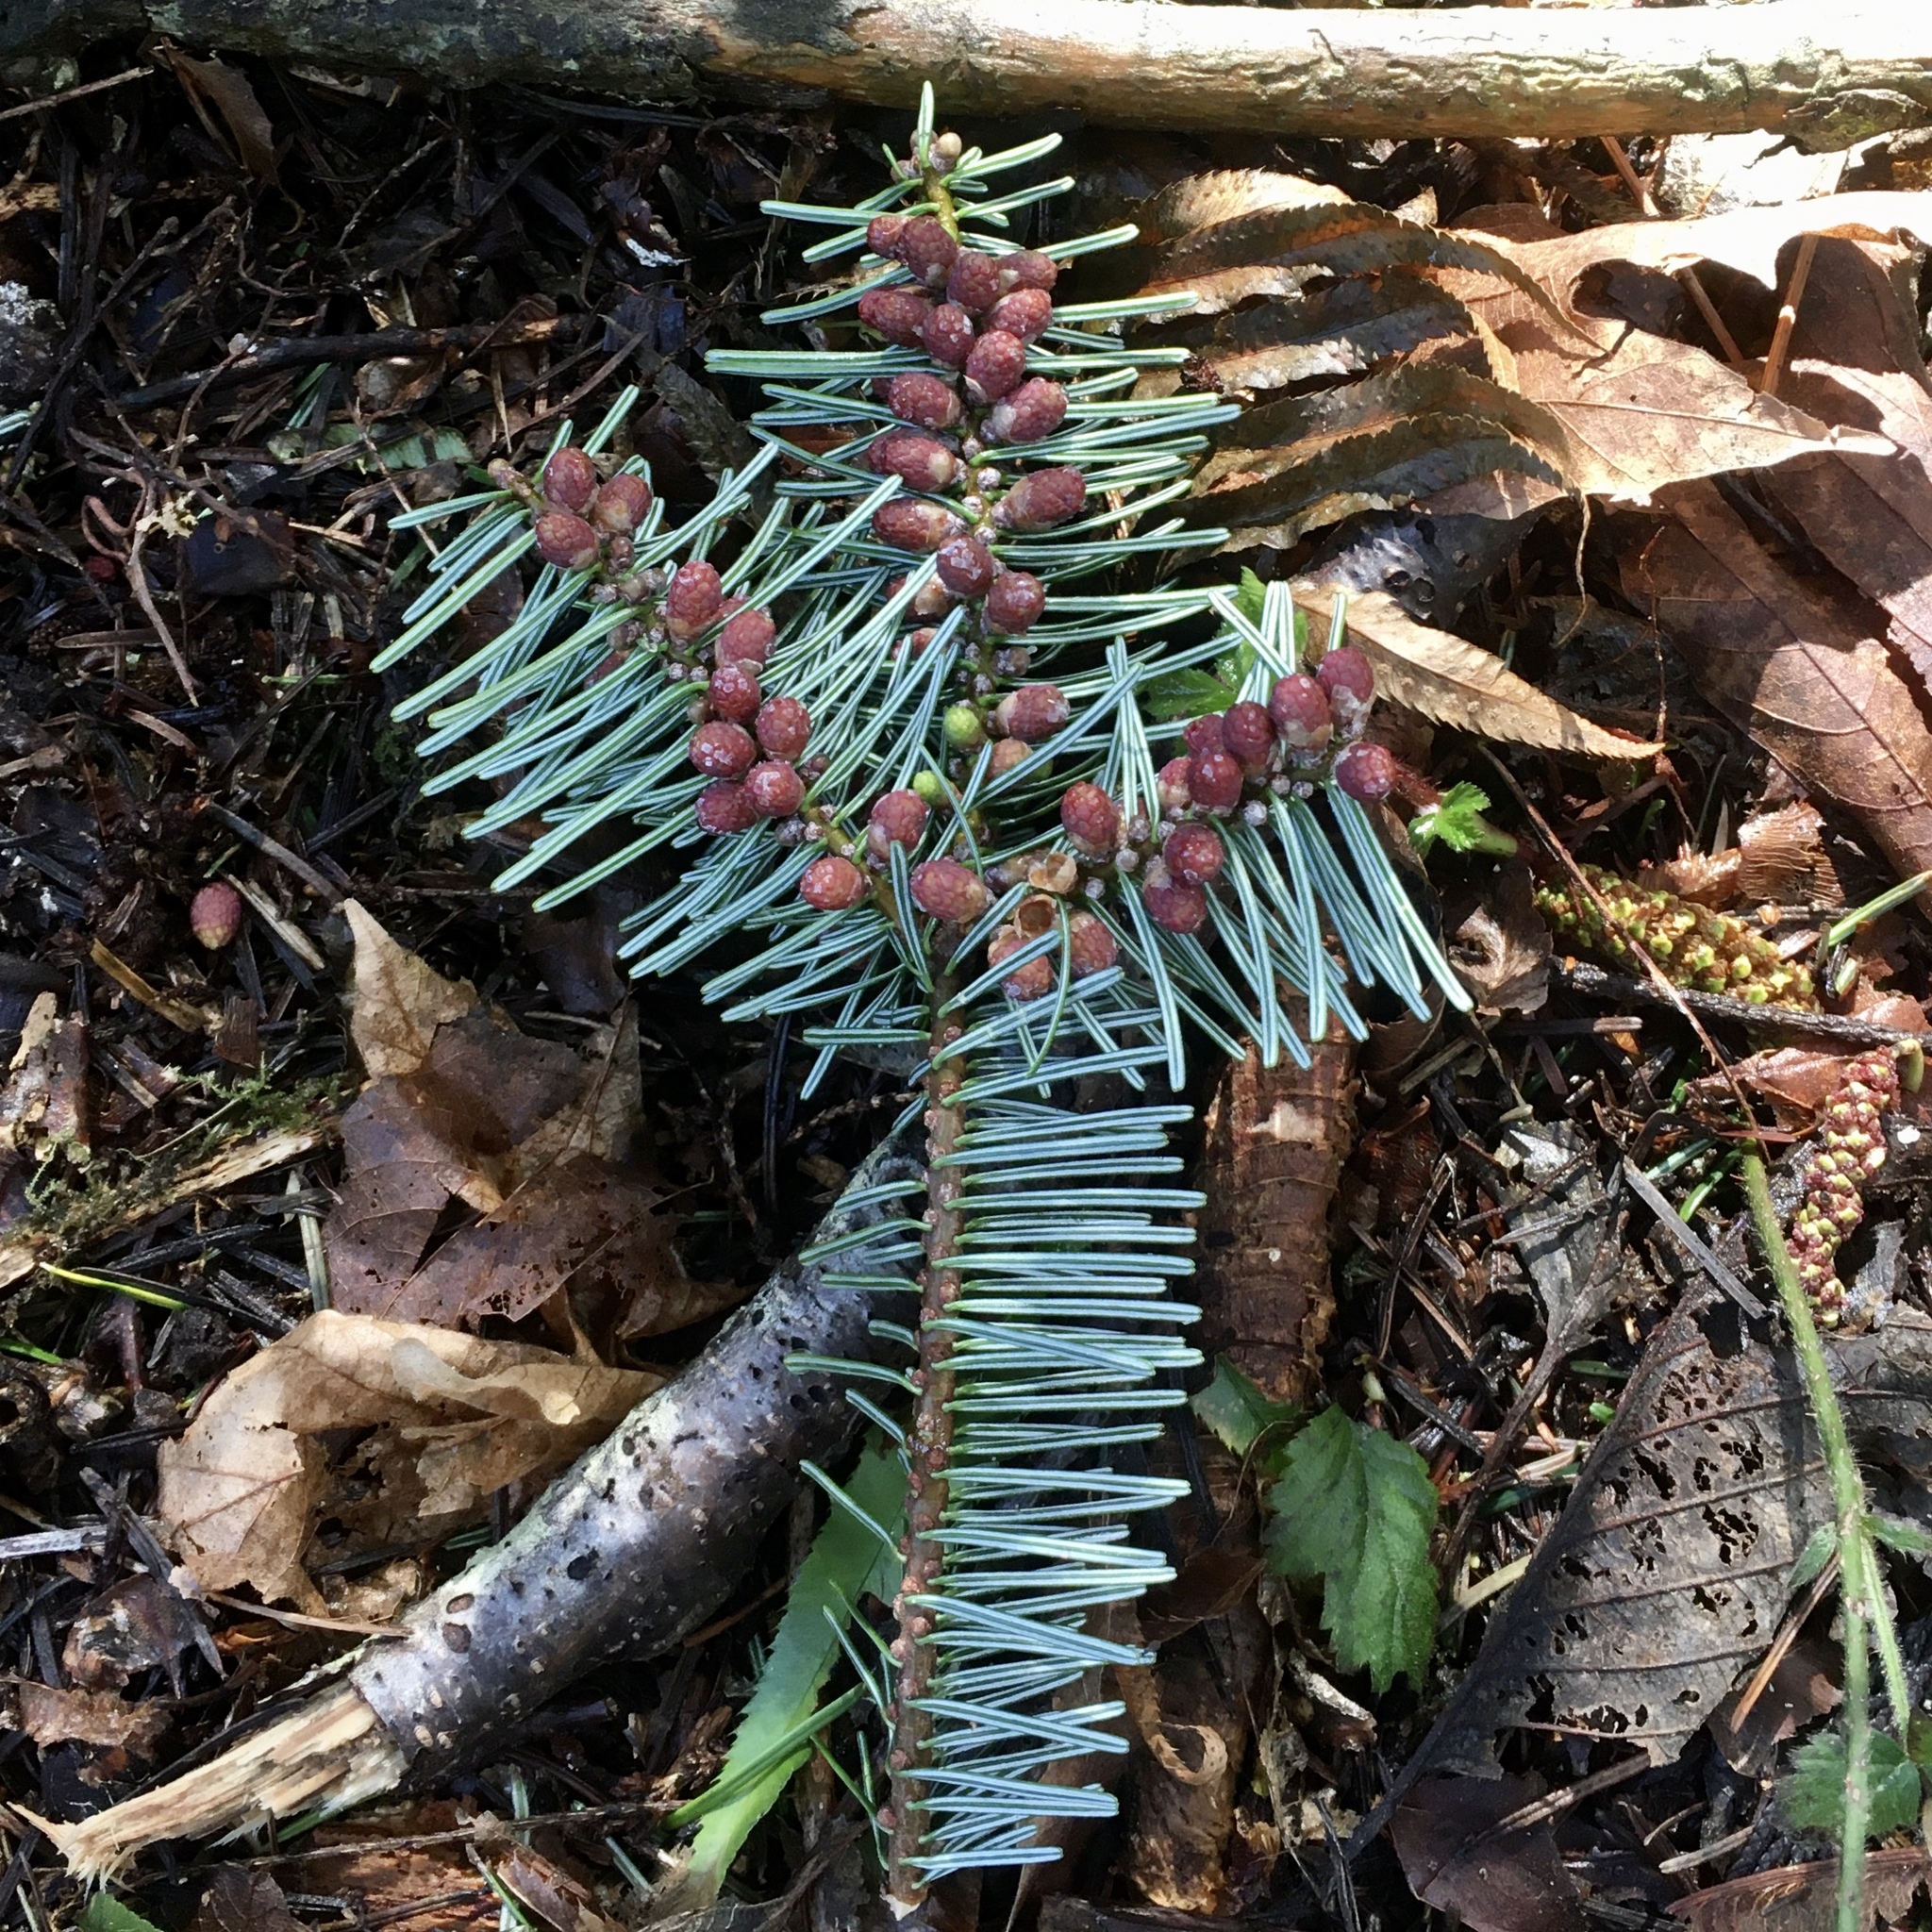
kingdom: Plantae
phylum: Tracheophyta
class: Pinopsida
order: Pinales
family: Pinaceae
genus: Abies
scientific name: Abies grandis
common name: Giant fir
